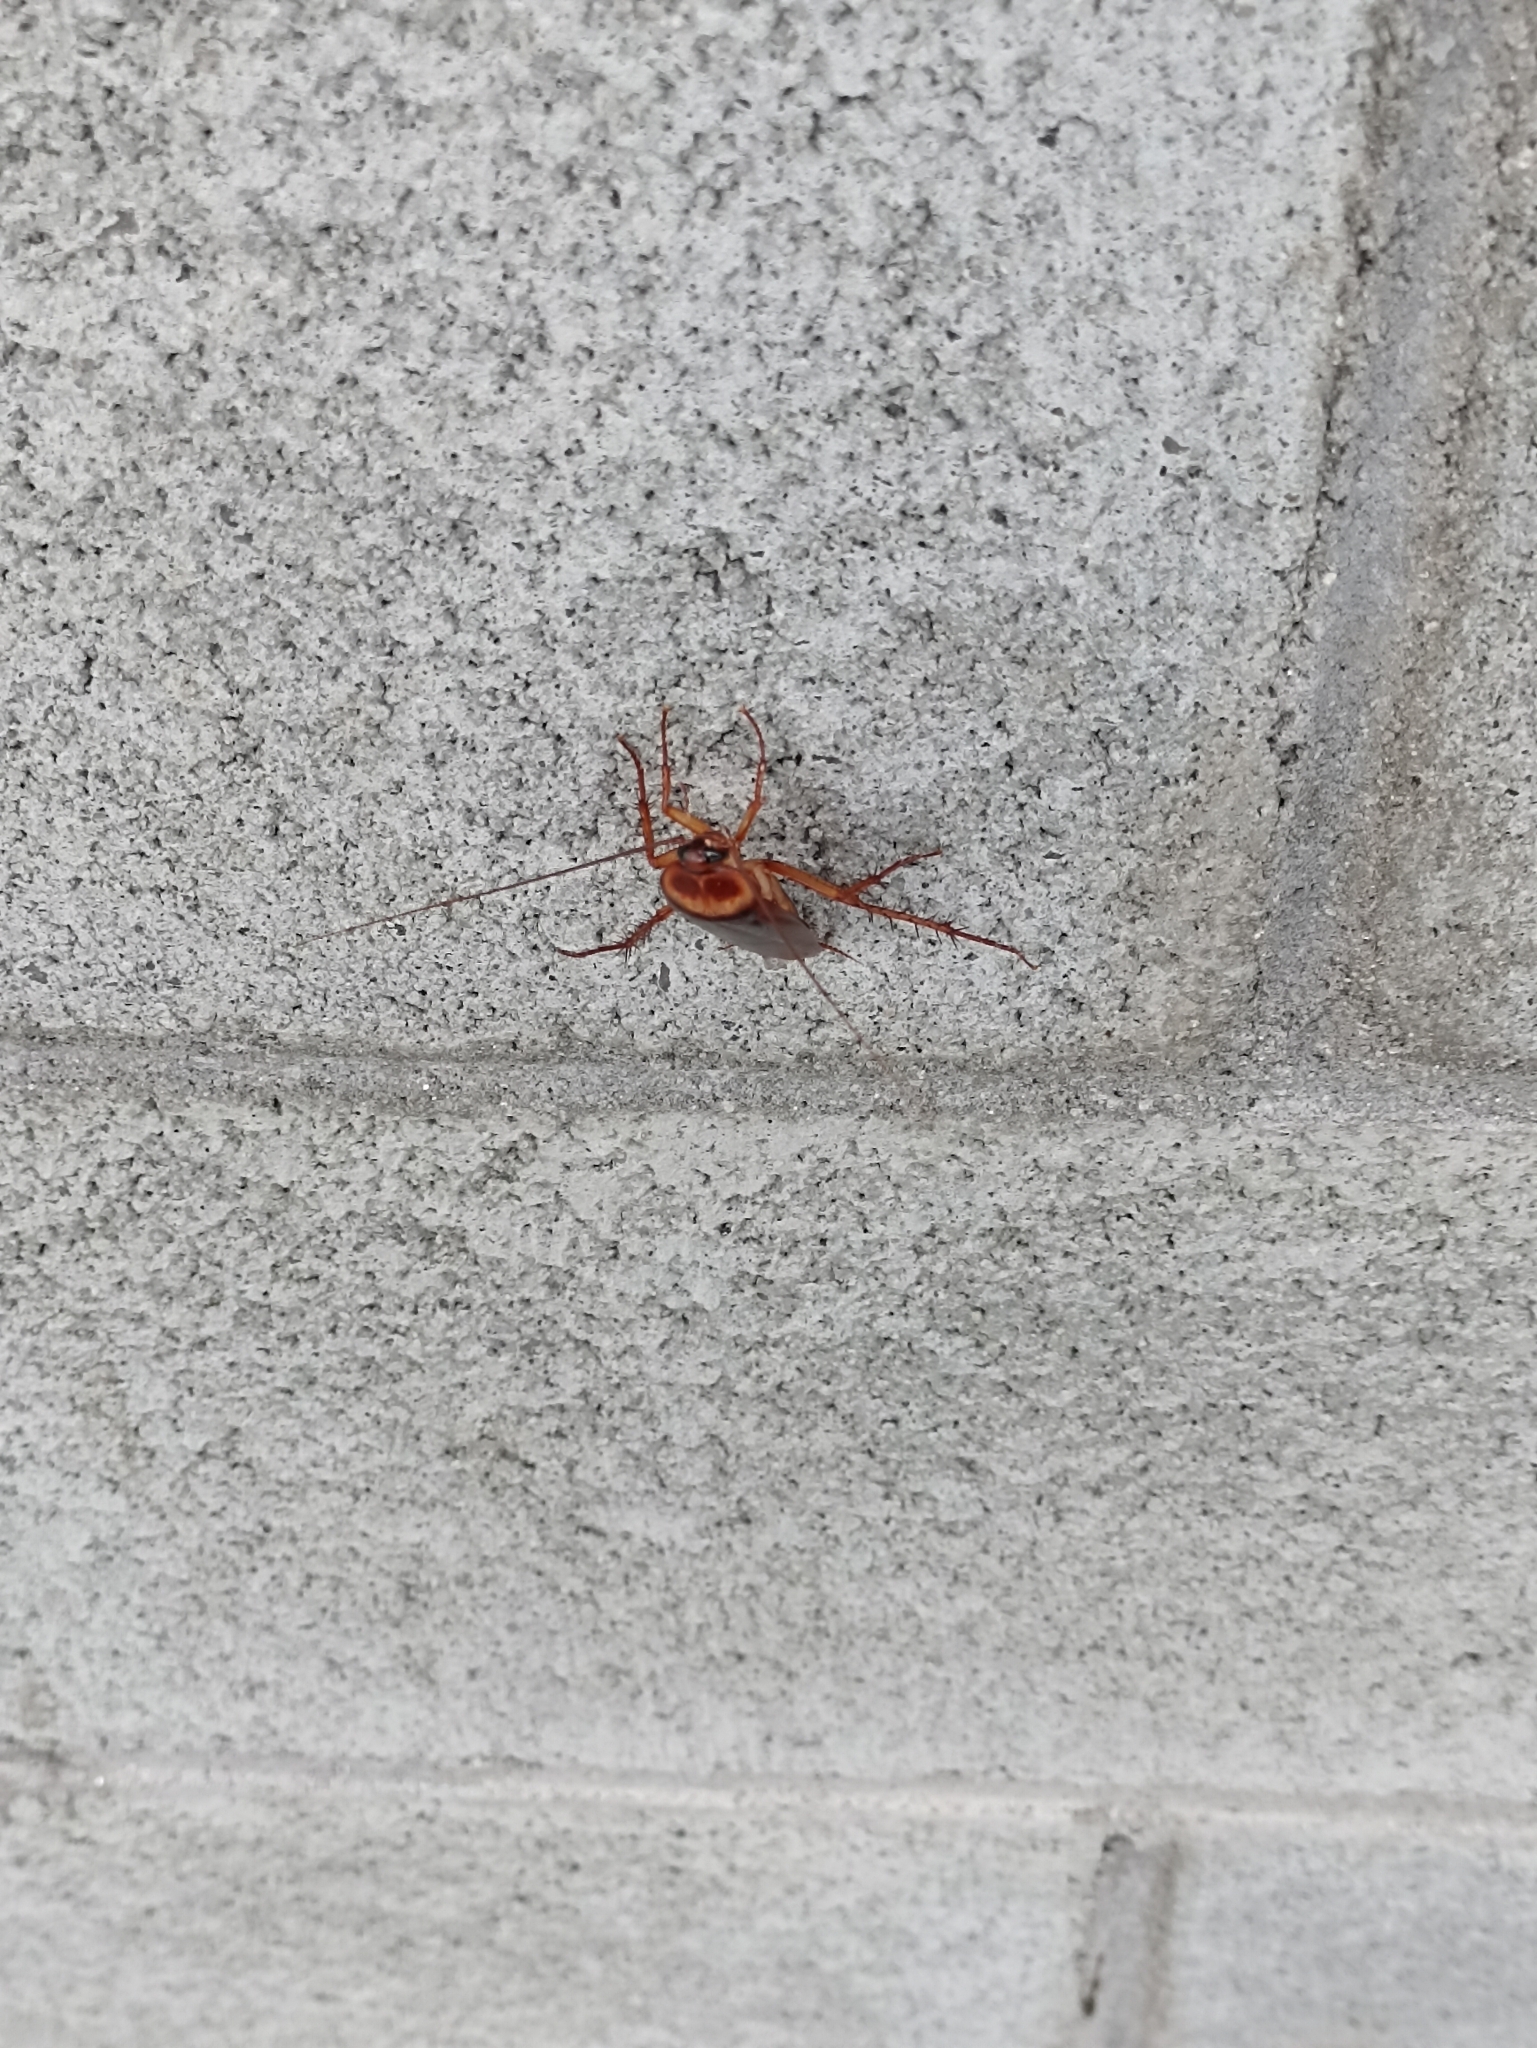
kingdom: Animalia
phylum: Arthropoda
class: Insecta
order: Blattodea
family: Blattidae
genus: Periplaneta
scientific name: Periplaneta americana
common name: American cockroach
